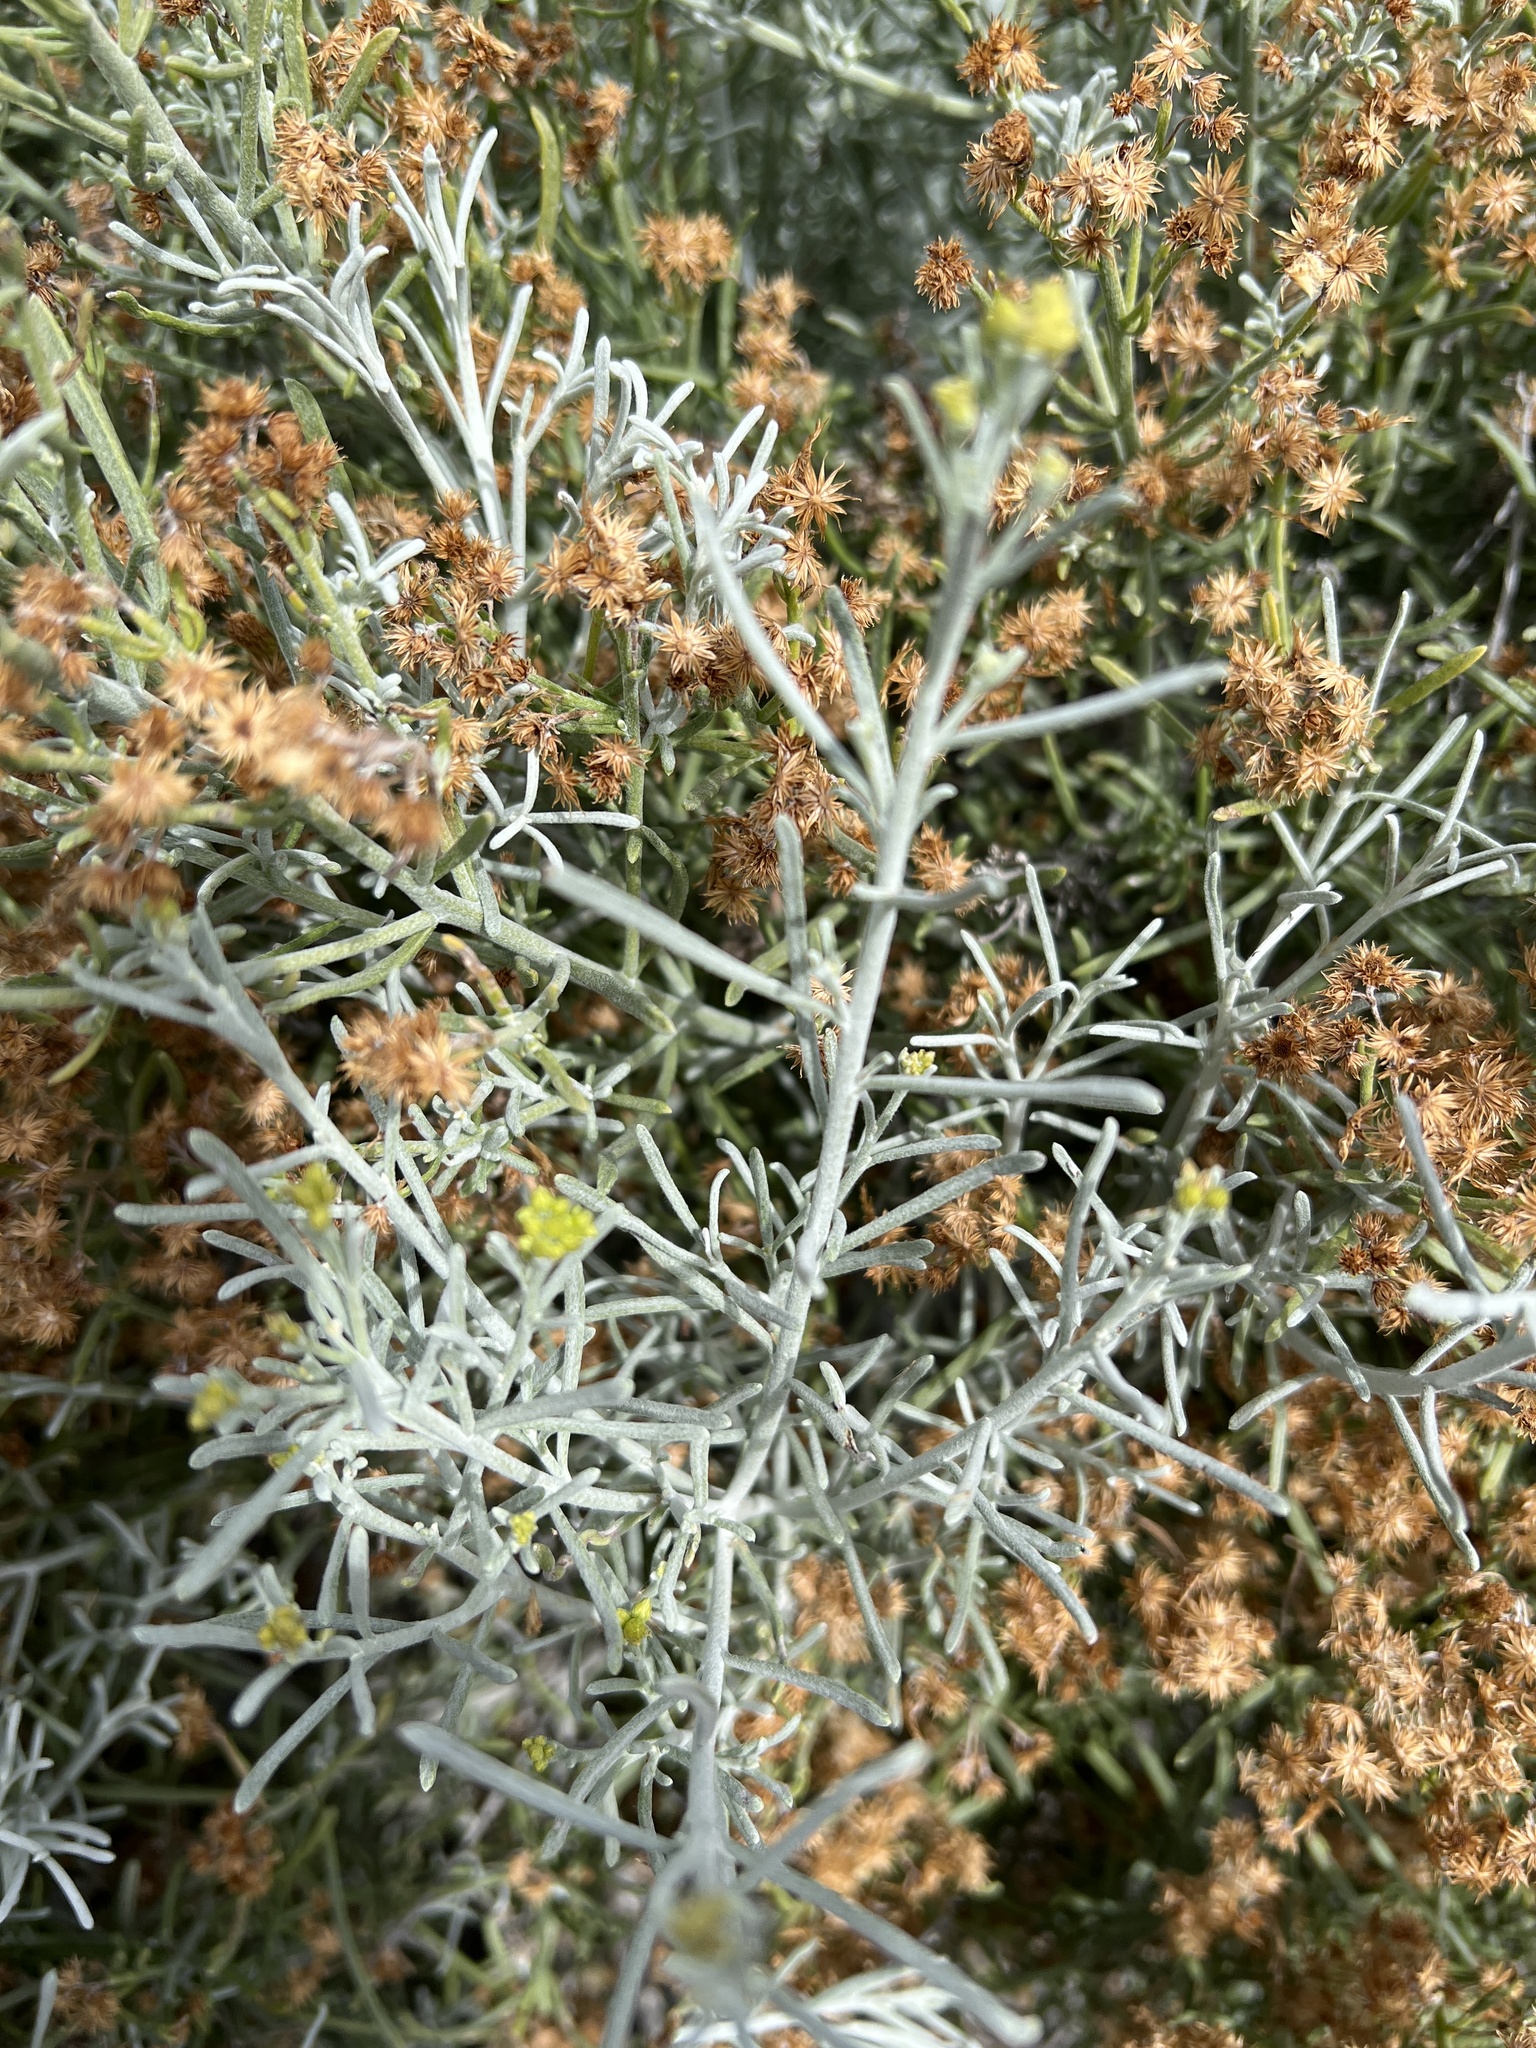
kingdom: Plantae
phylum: Tracheophyta
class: Magnoliopsida
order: Asterales
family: Asteraceae
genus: Schizogyne
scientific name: Schizogyne sericea
